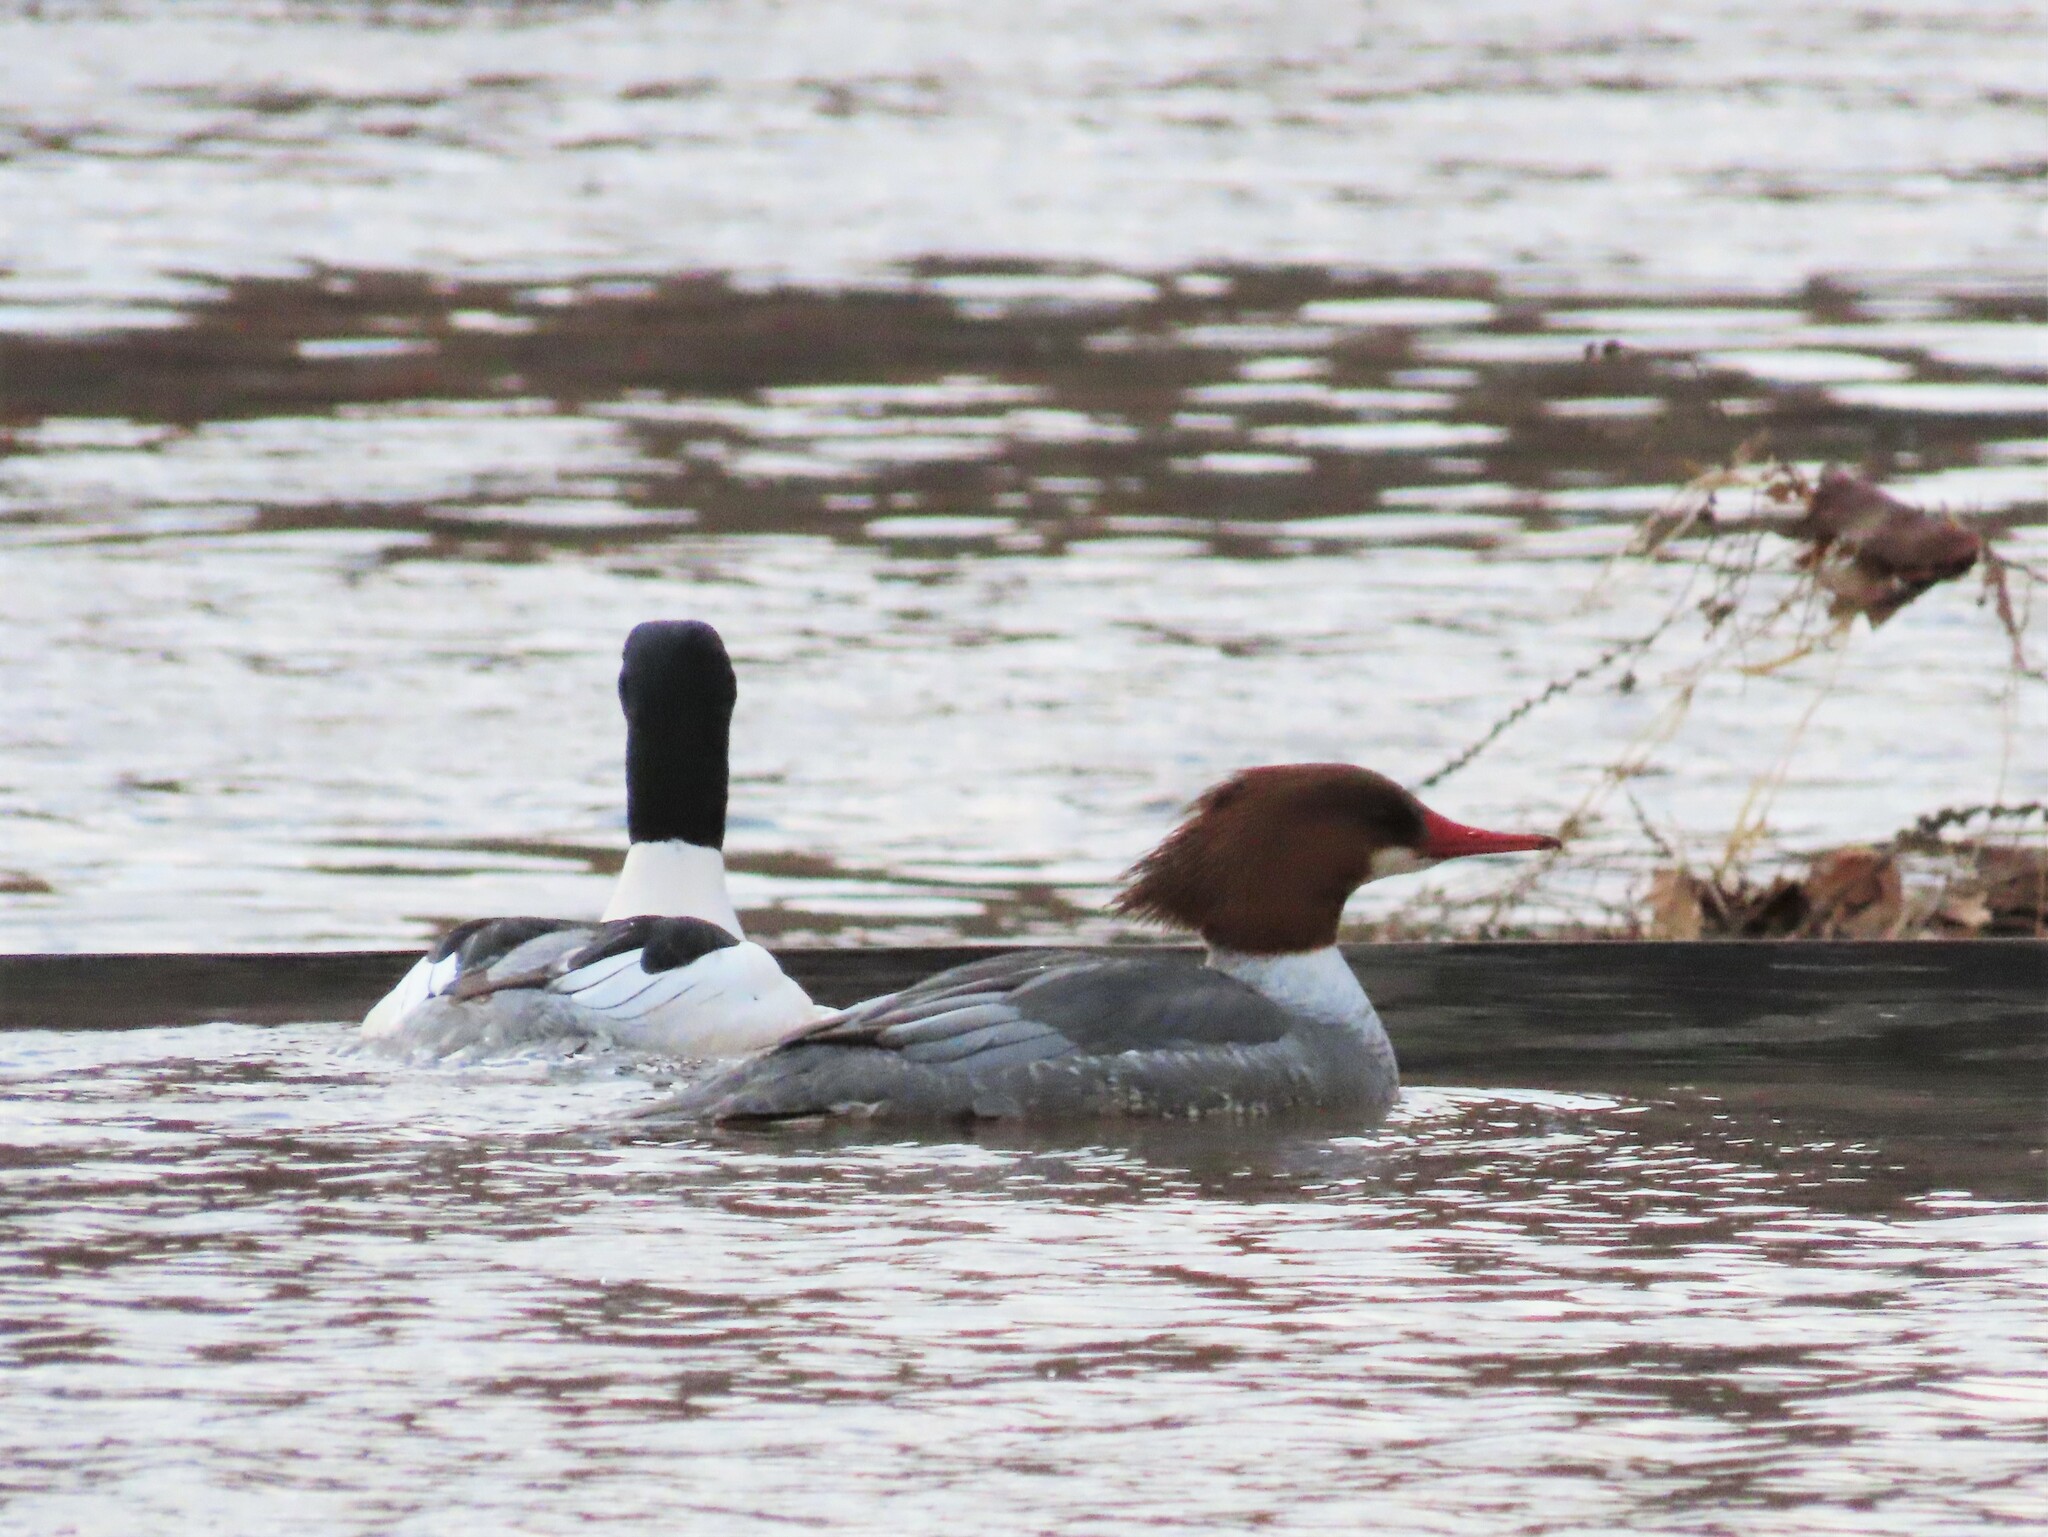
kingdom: Animalia
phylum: Chordata
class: Aves
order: Anseriformes
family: Anatidae
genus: Mergus
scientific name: Mergus merganser
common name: Common merganser
